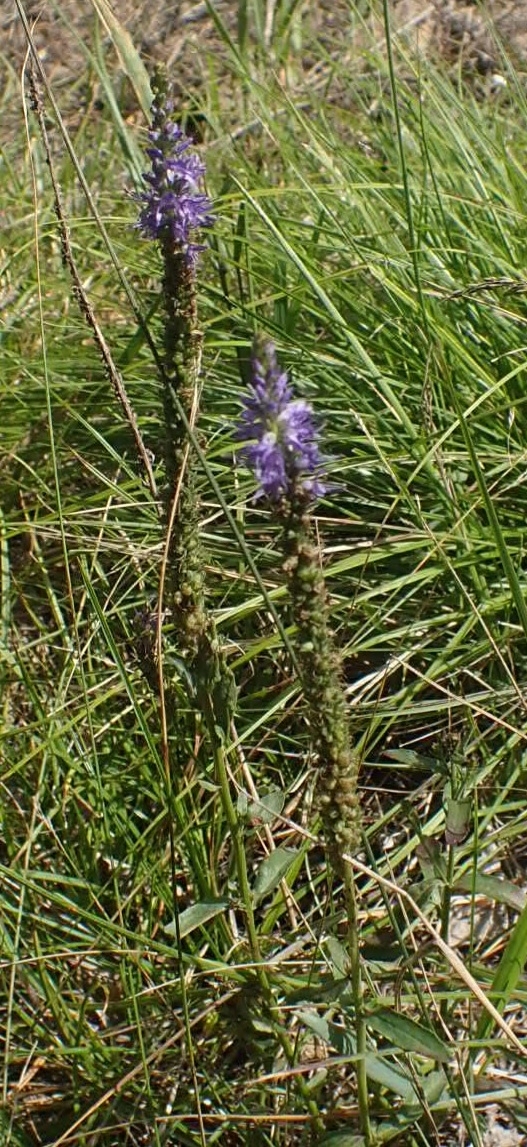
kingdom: Plantae
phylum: Tracheophyta
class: Magnoliopsida
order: Lamiales
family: Plantaginaceae
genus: Veronica
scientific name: Veronica spicata
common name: Spiked speedwell
